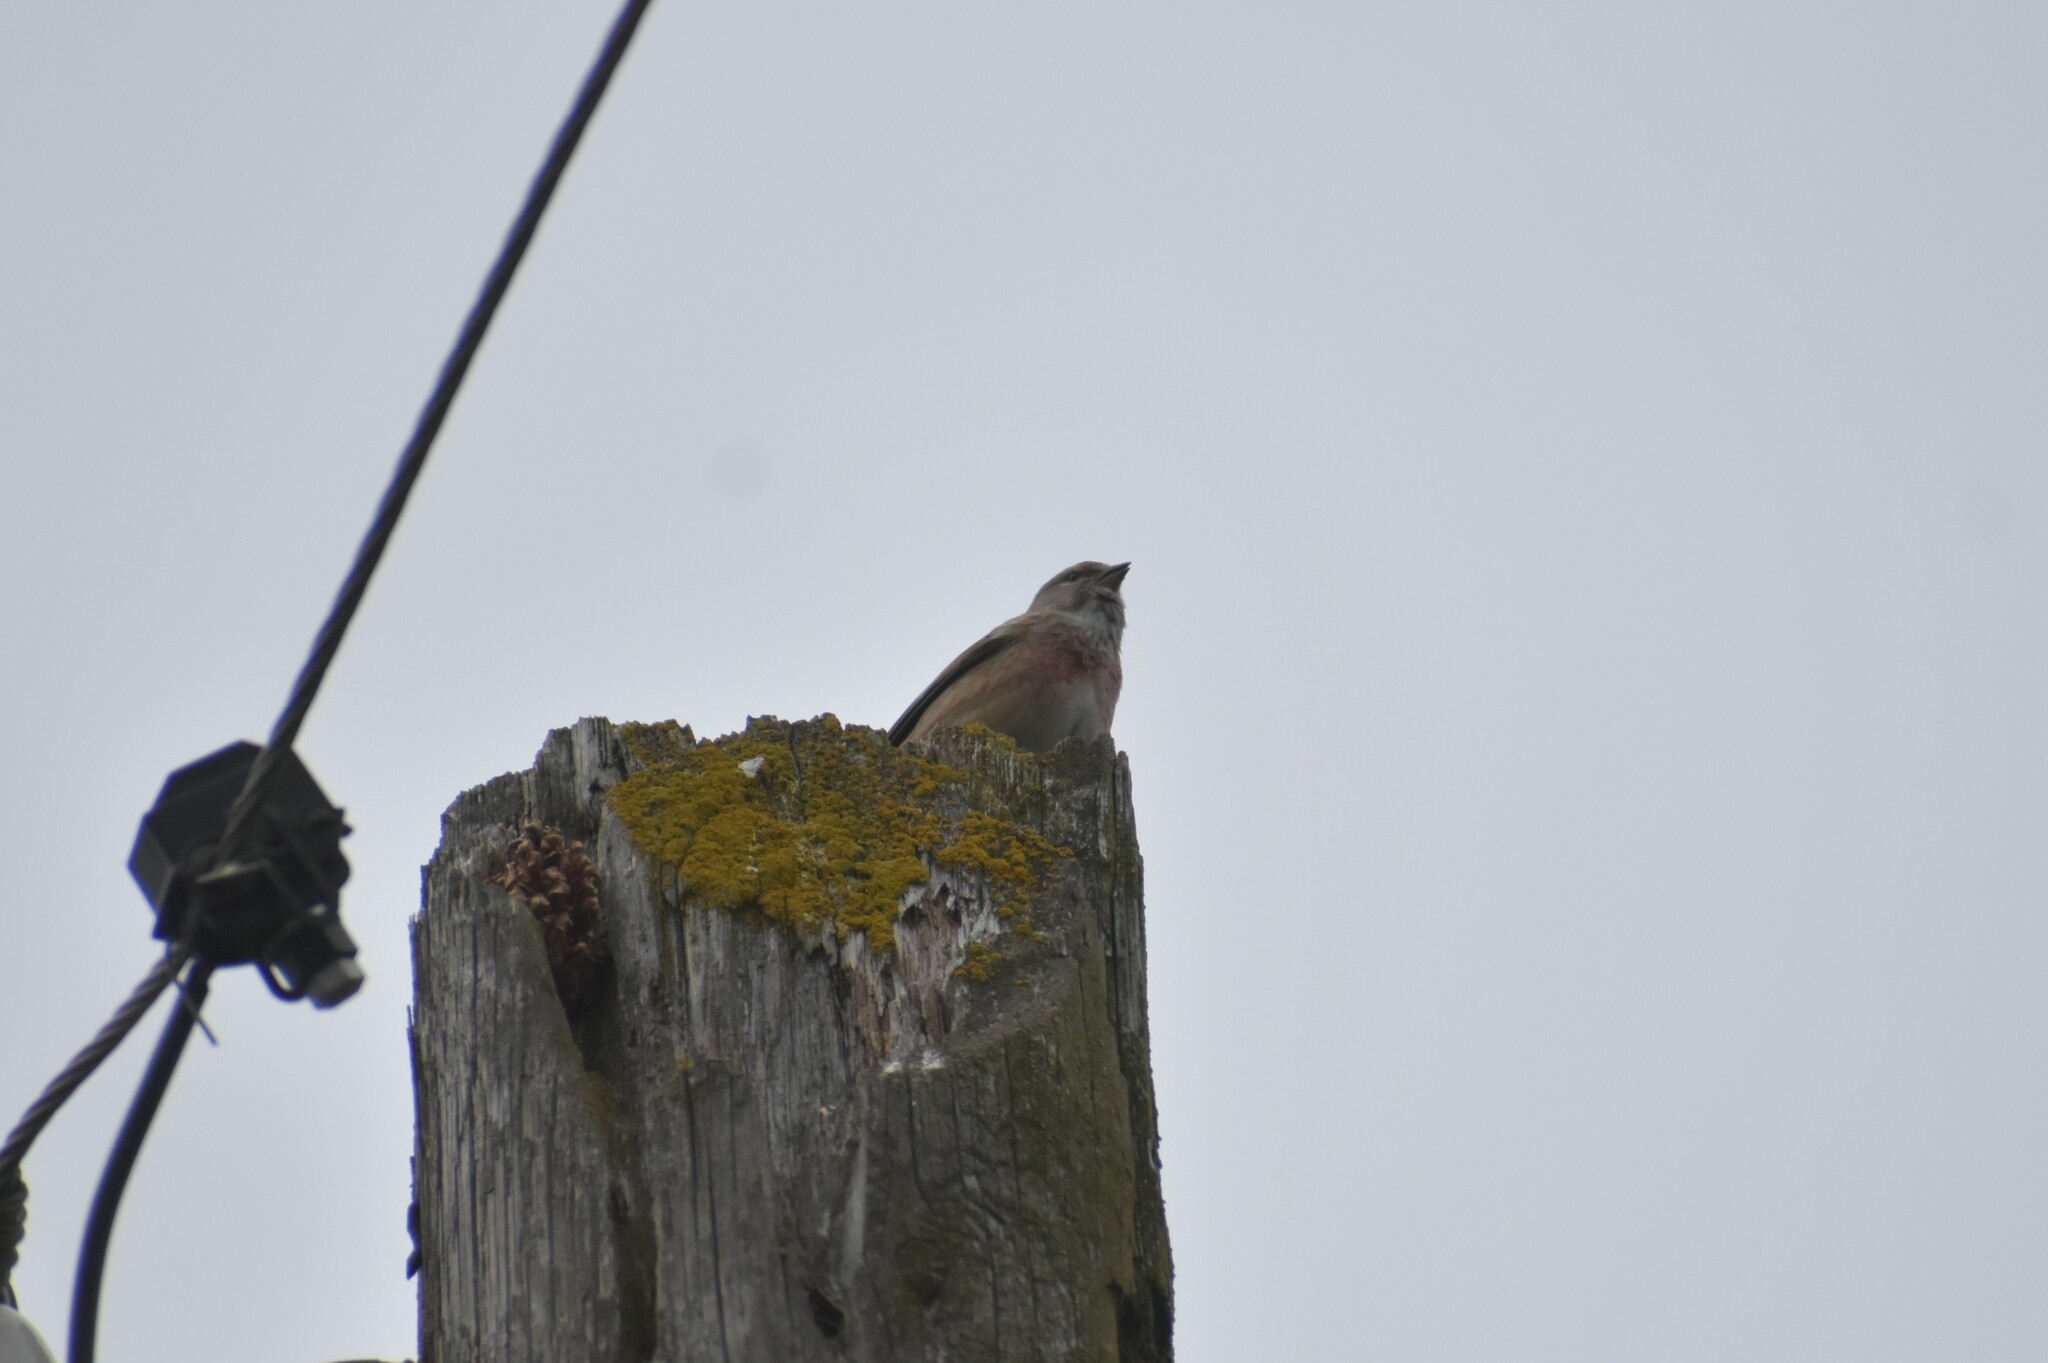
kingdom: Animalia
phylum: Chordata
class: Aves
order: Passeriformes
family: Fringillidae
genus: Linaria
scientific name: Linaria cannabina
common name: Common linnet
